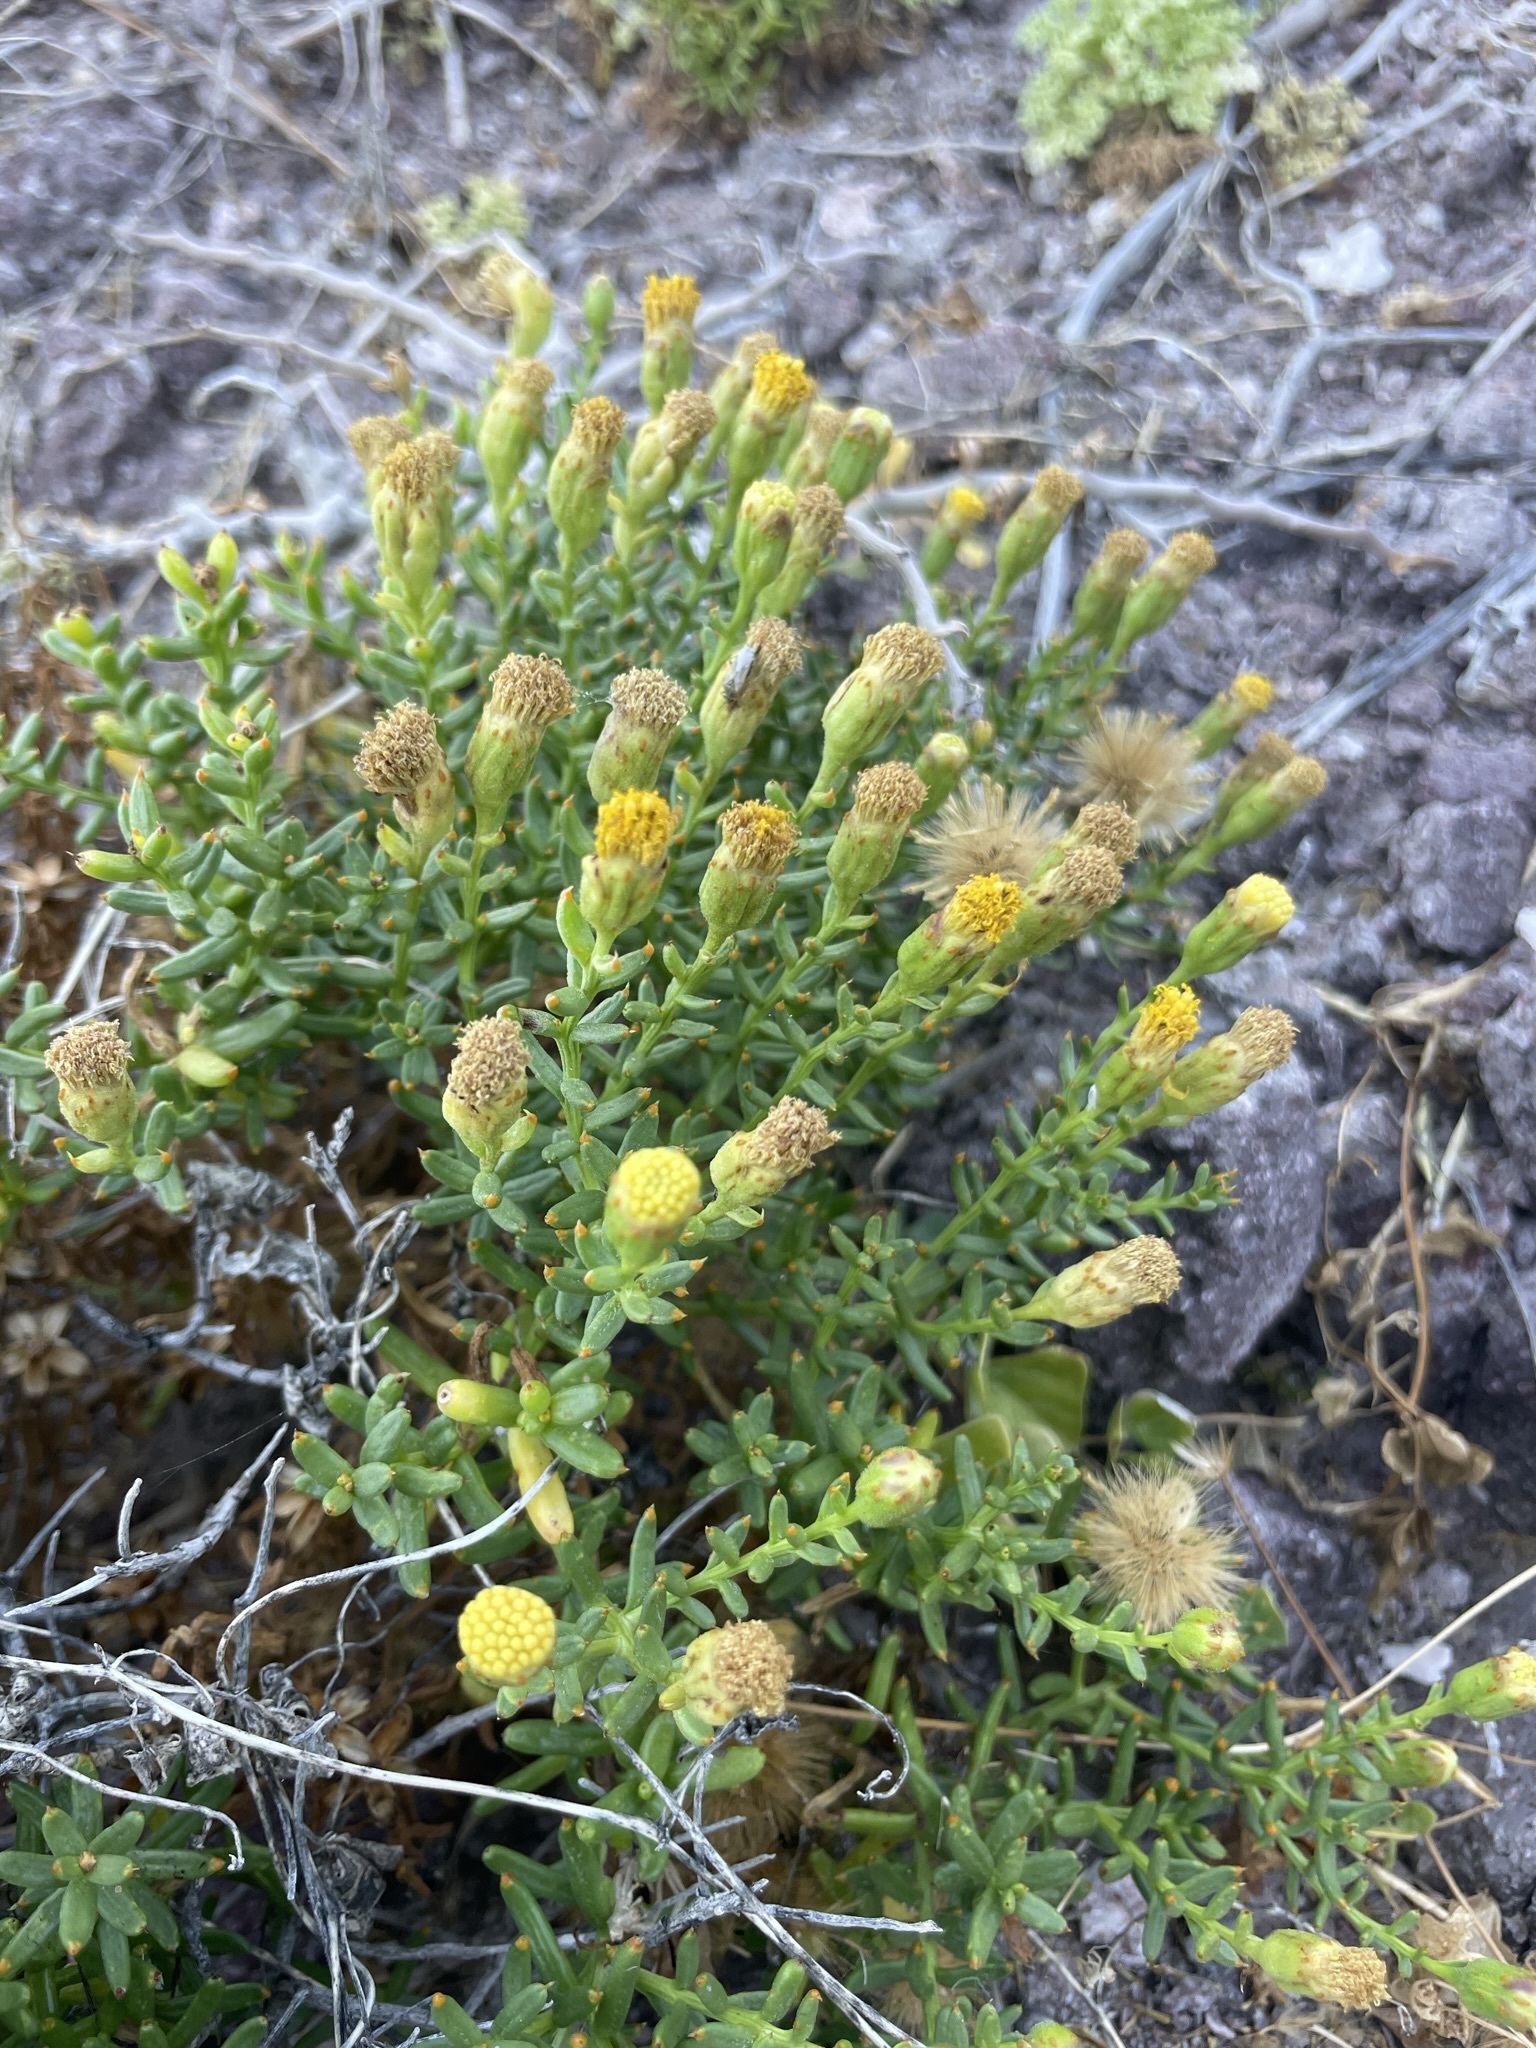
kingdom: Plantae
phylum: Tracheophyta
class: Magnoliopsida
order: Asterales
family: Asteraceae
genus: Bajacalia
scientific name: Bajacalia crassifolia
